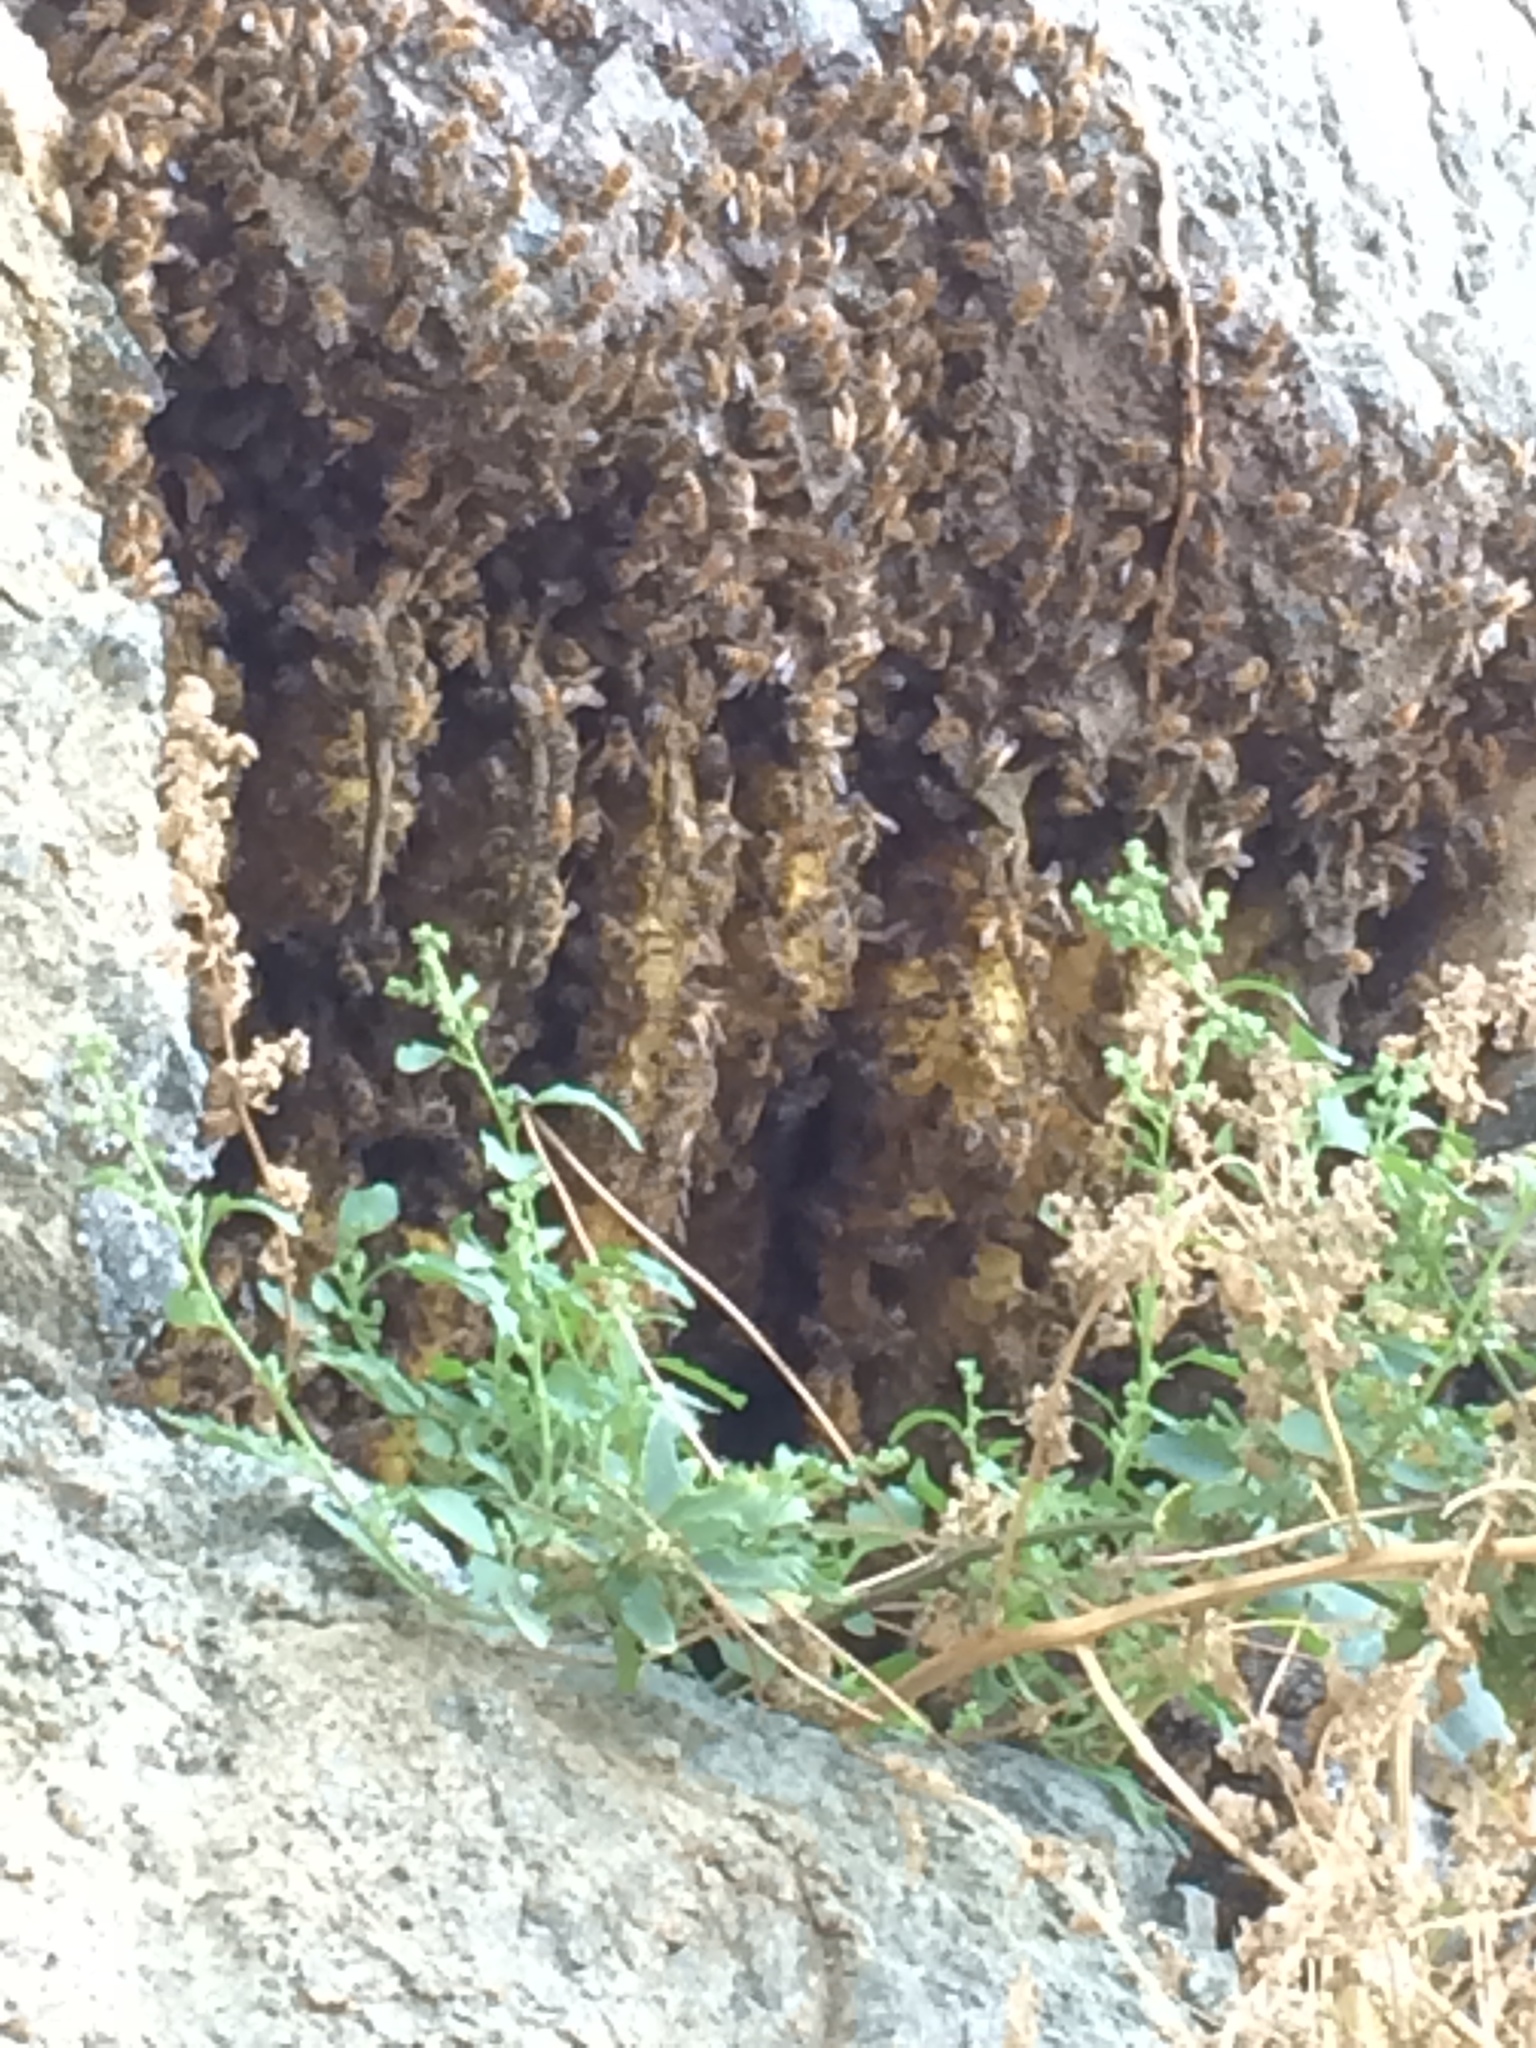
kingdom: Animalia
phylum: Arthropoda
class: Insecta
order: Hymenoptera
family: Apidae
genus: Apis
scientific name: Apis mellifera
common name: Honey bee
